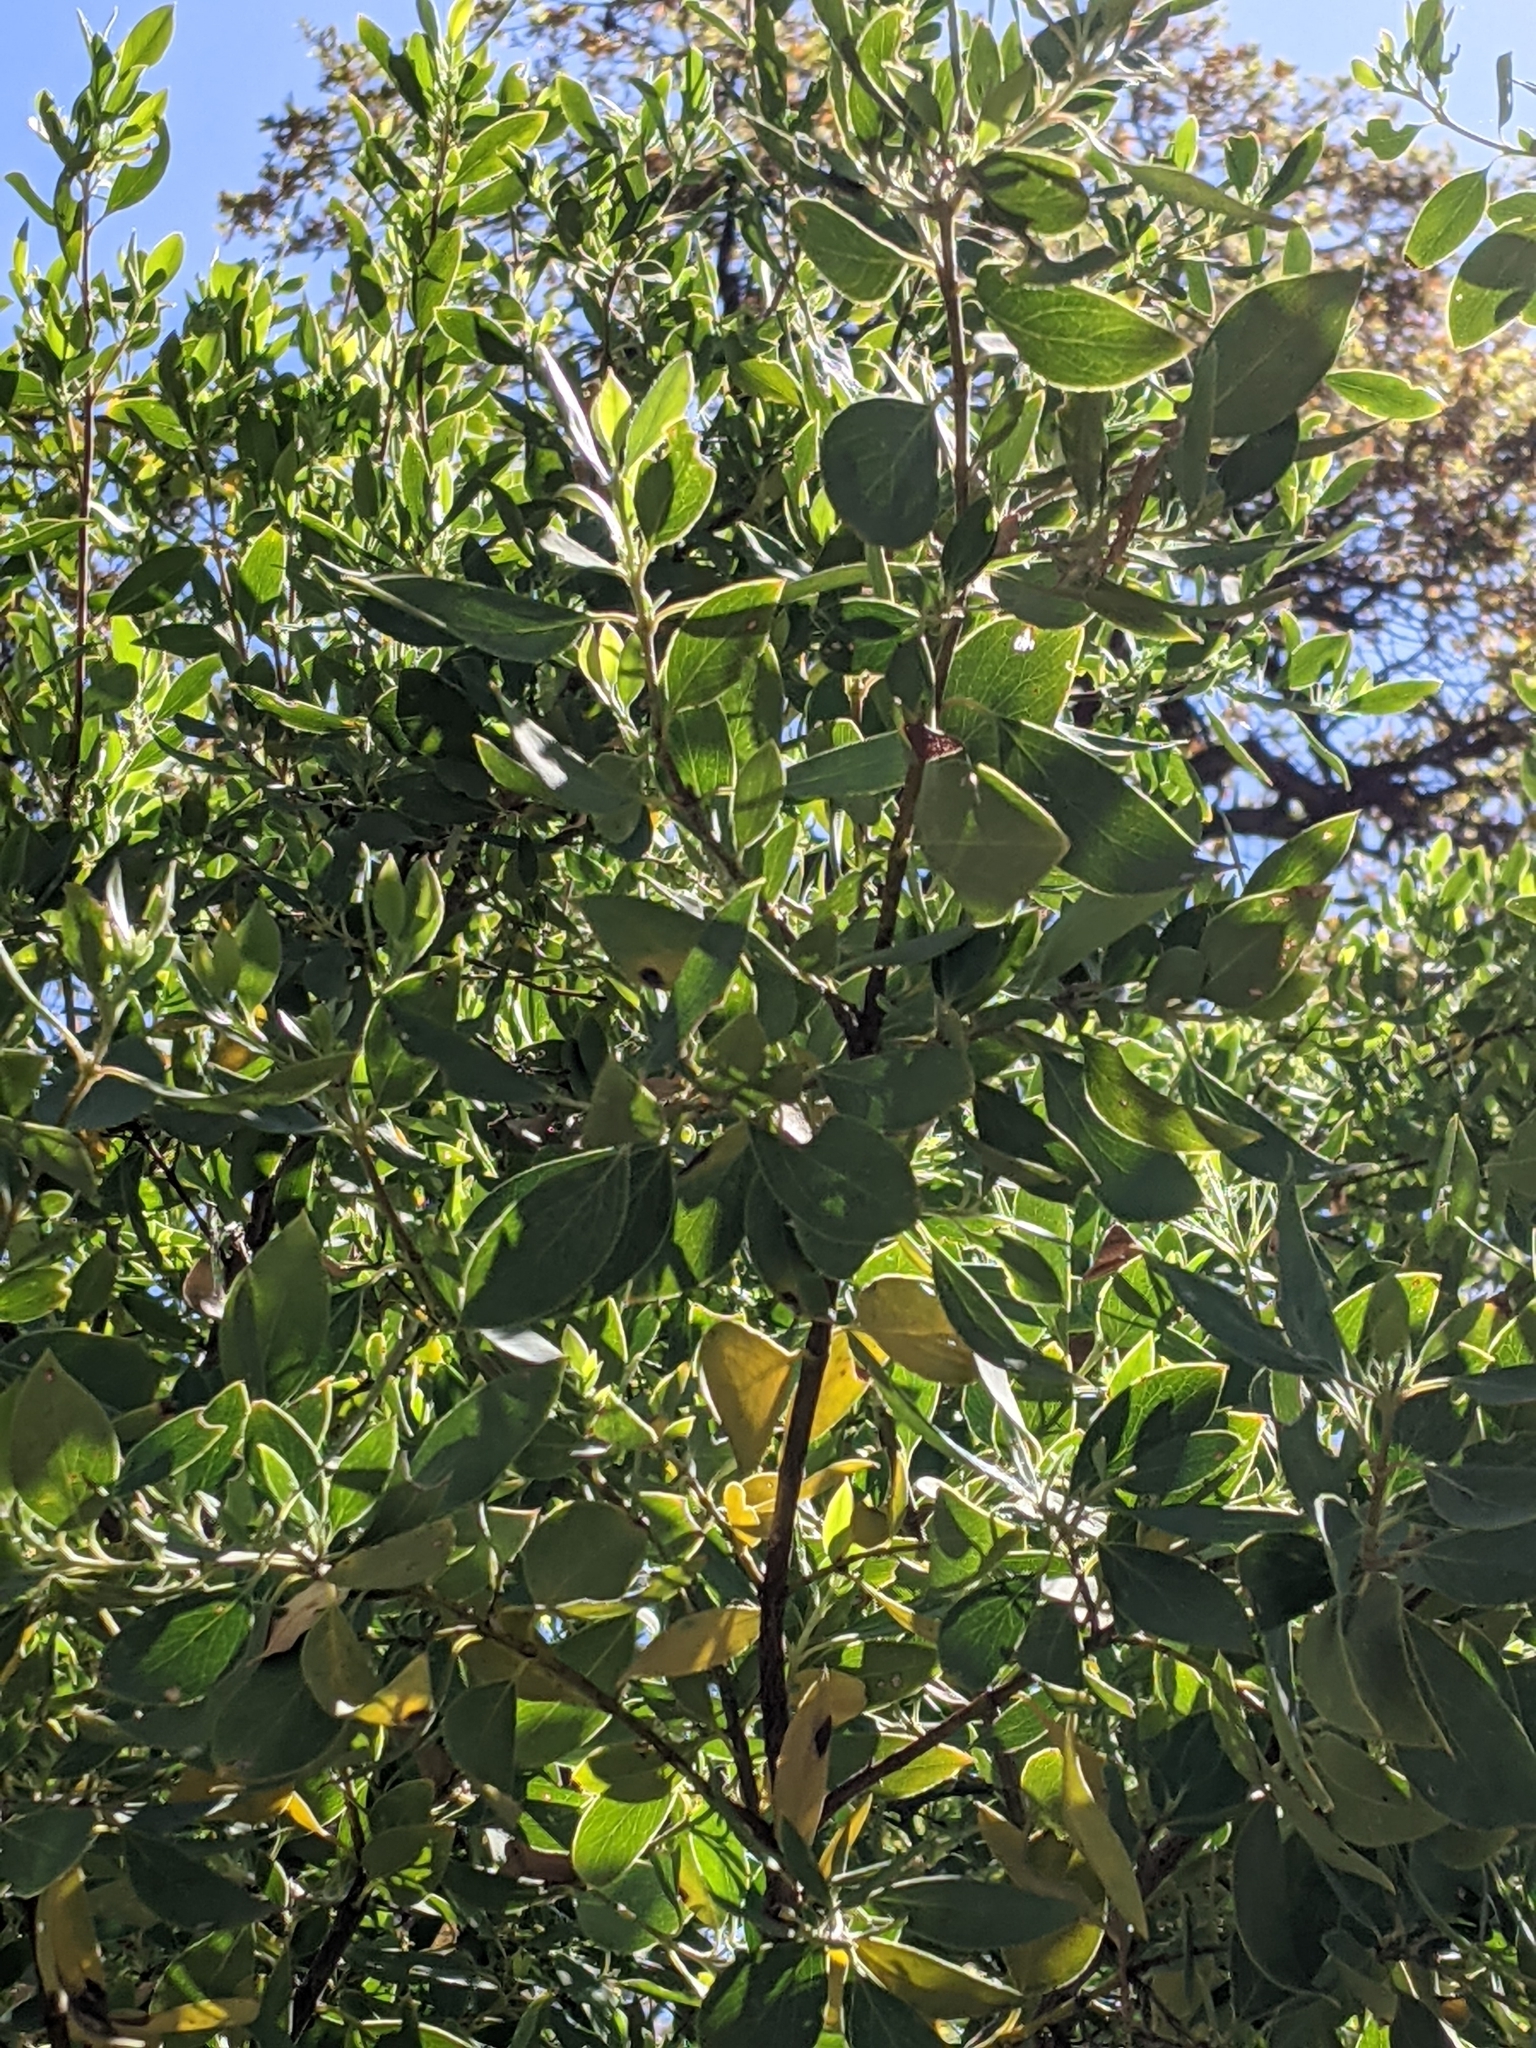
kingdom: Plantae
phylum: Tracheophyta
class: Magnoliopsida
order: Garryales
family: Garryaceae
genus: Garrya
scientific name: Garrya
